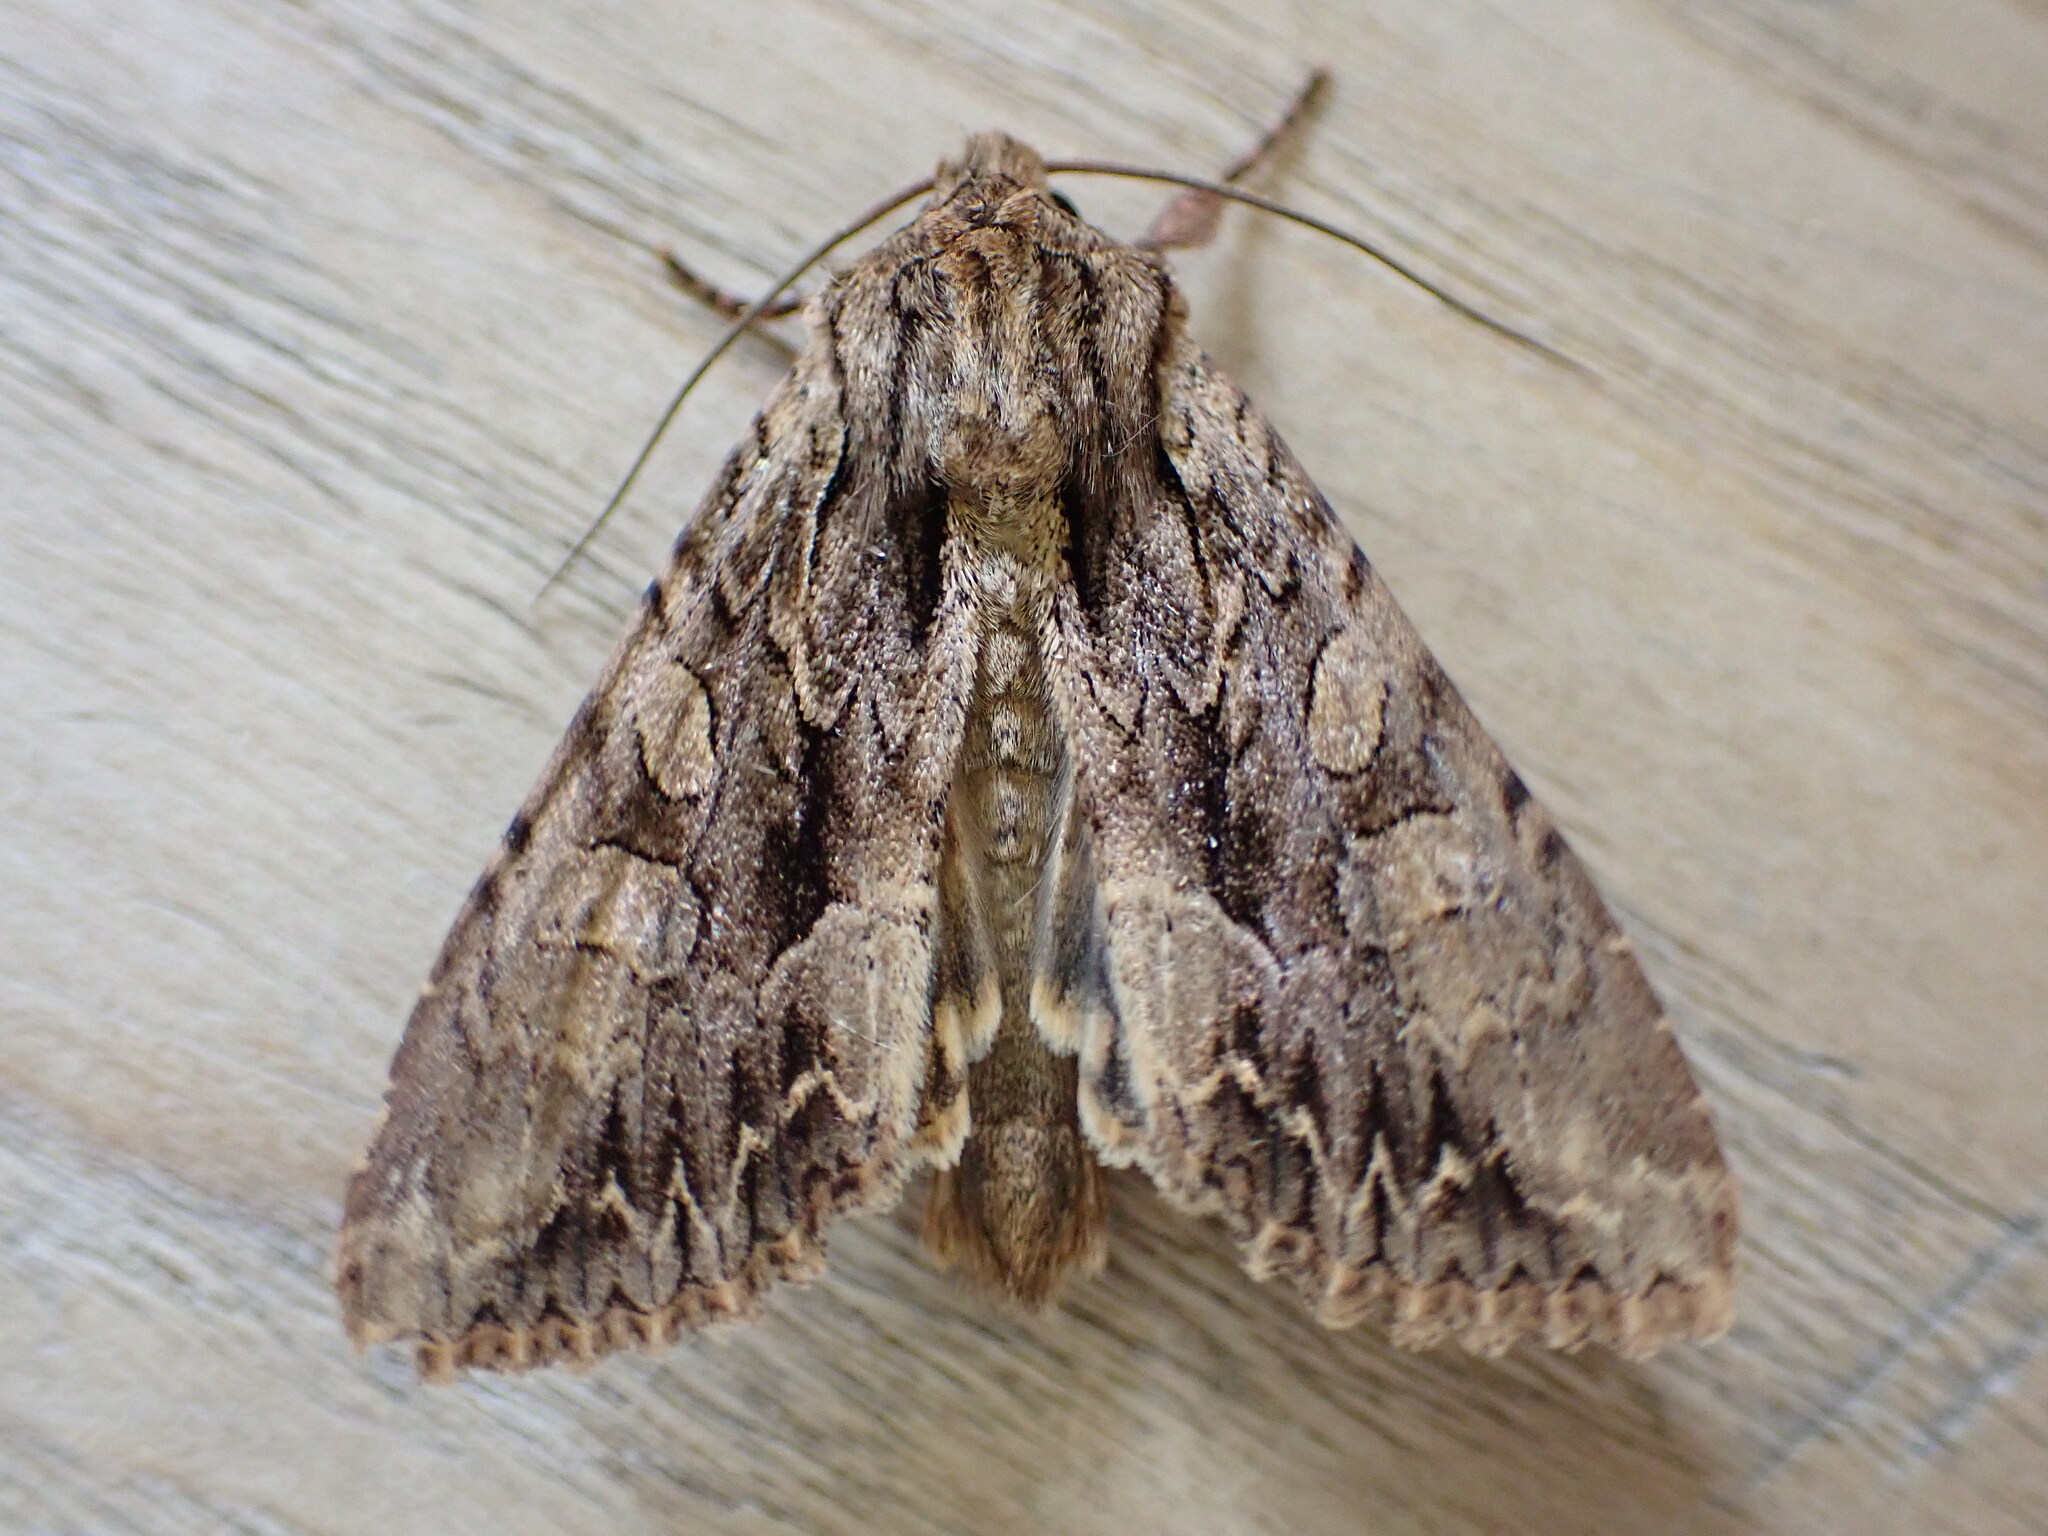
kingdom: Animalia
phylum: Arthropoda
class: Insecta
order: Lepidoptera
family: Noctuidae
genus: Apamea
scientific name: Apamea monoglypha
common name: Dark arches
